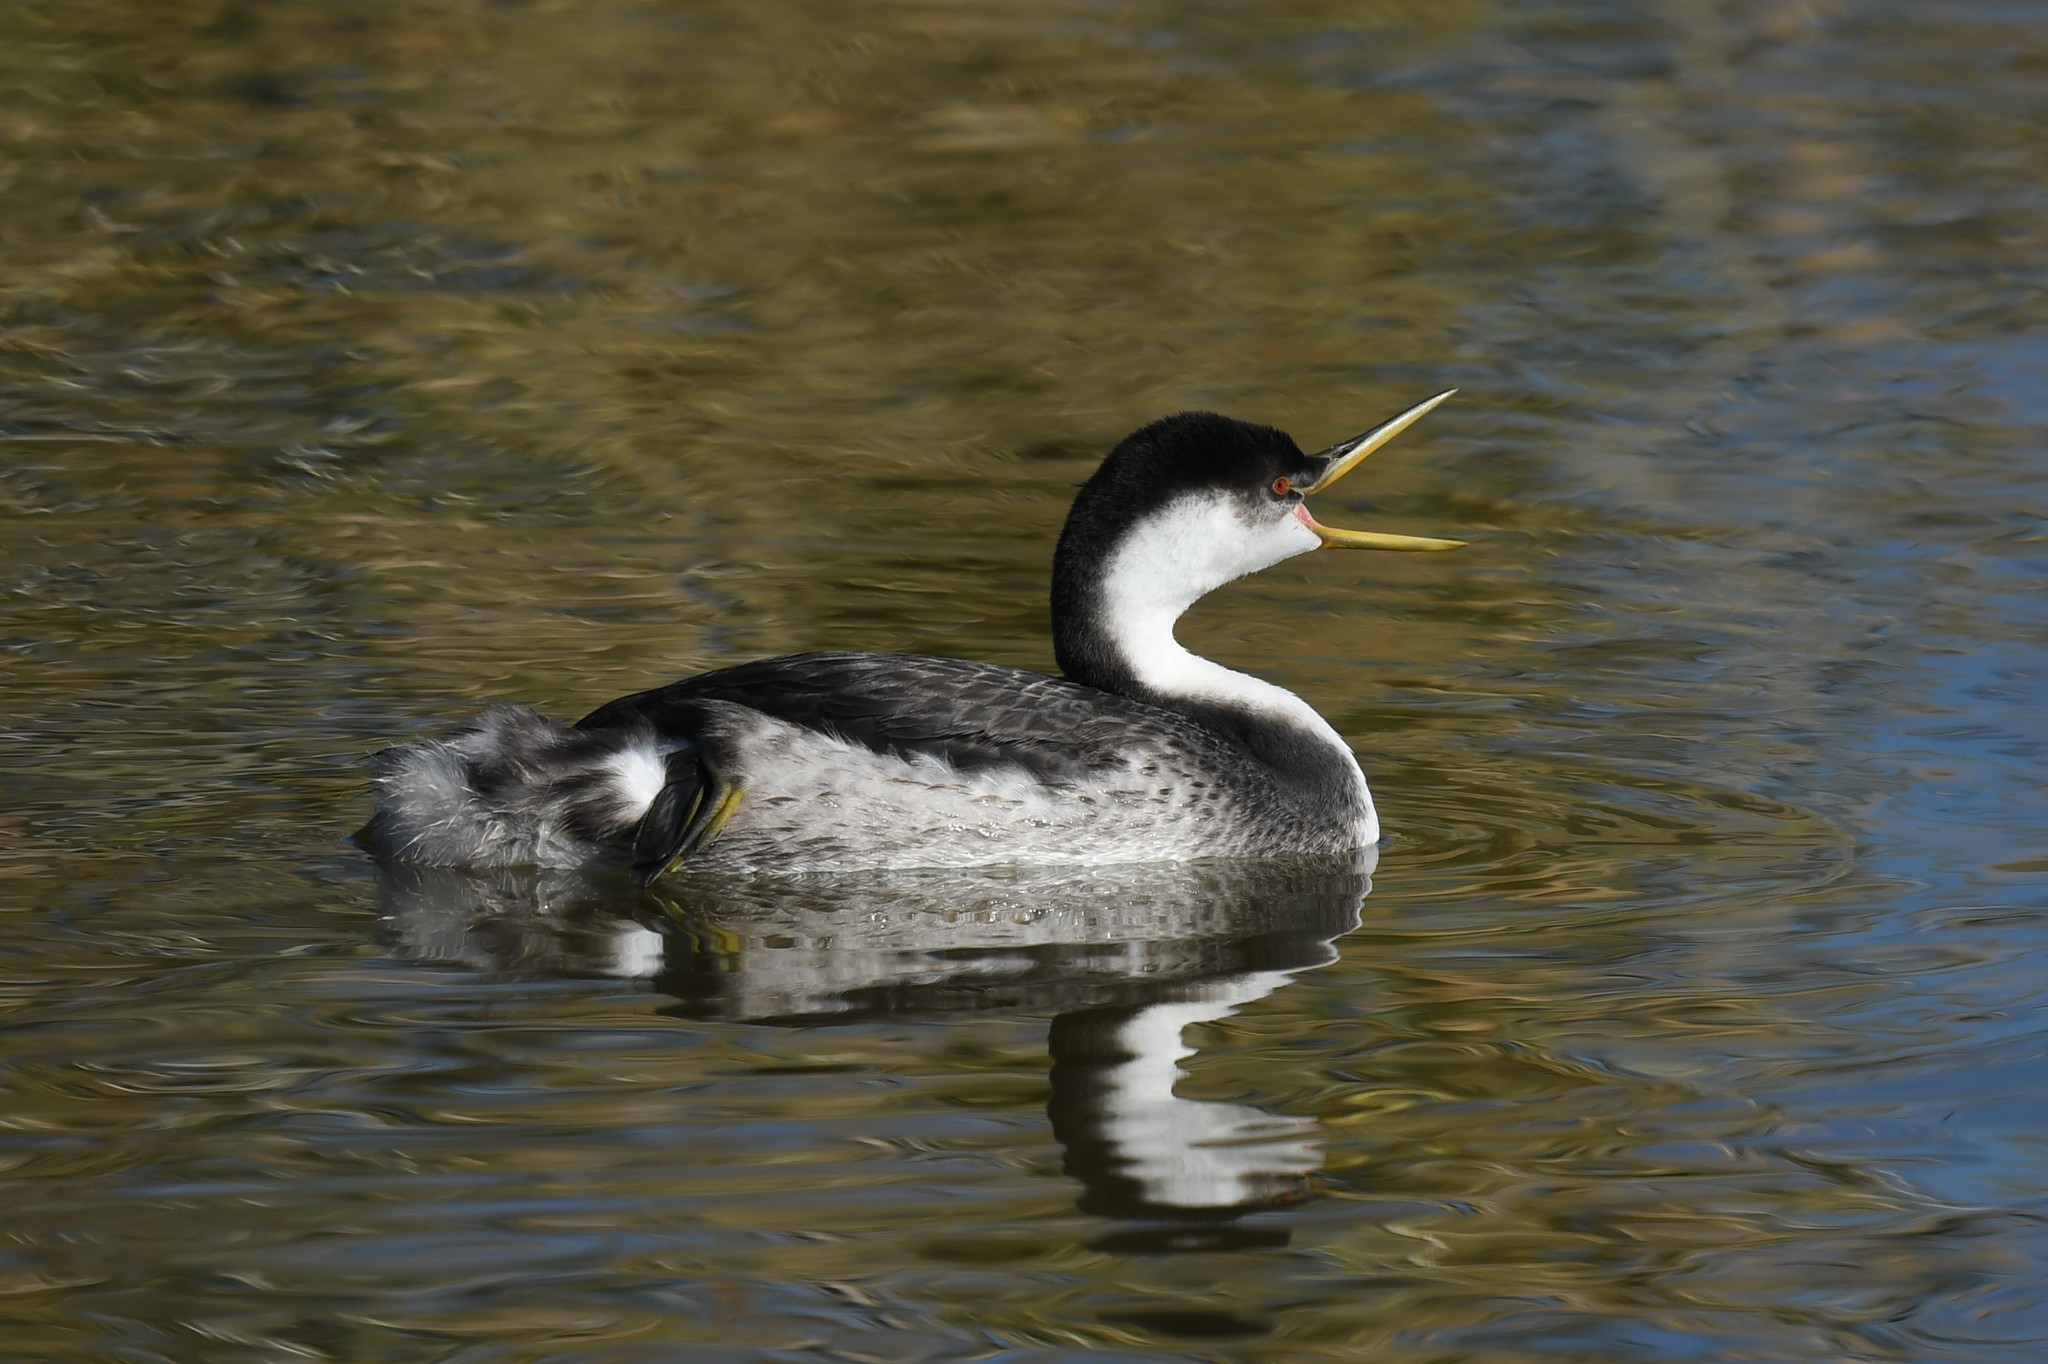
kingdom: Animalia
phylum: Chordata
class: Aves
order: Podicipediformes
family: Podicipedidae
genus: Aechmophorus
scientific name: Aechmophorus occidentalis
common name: Western grebe
